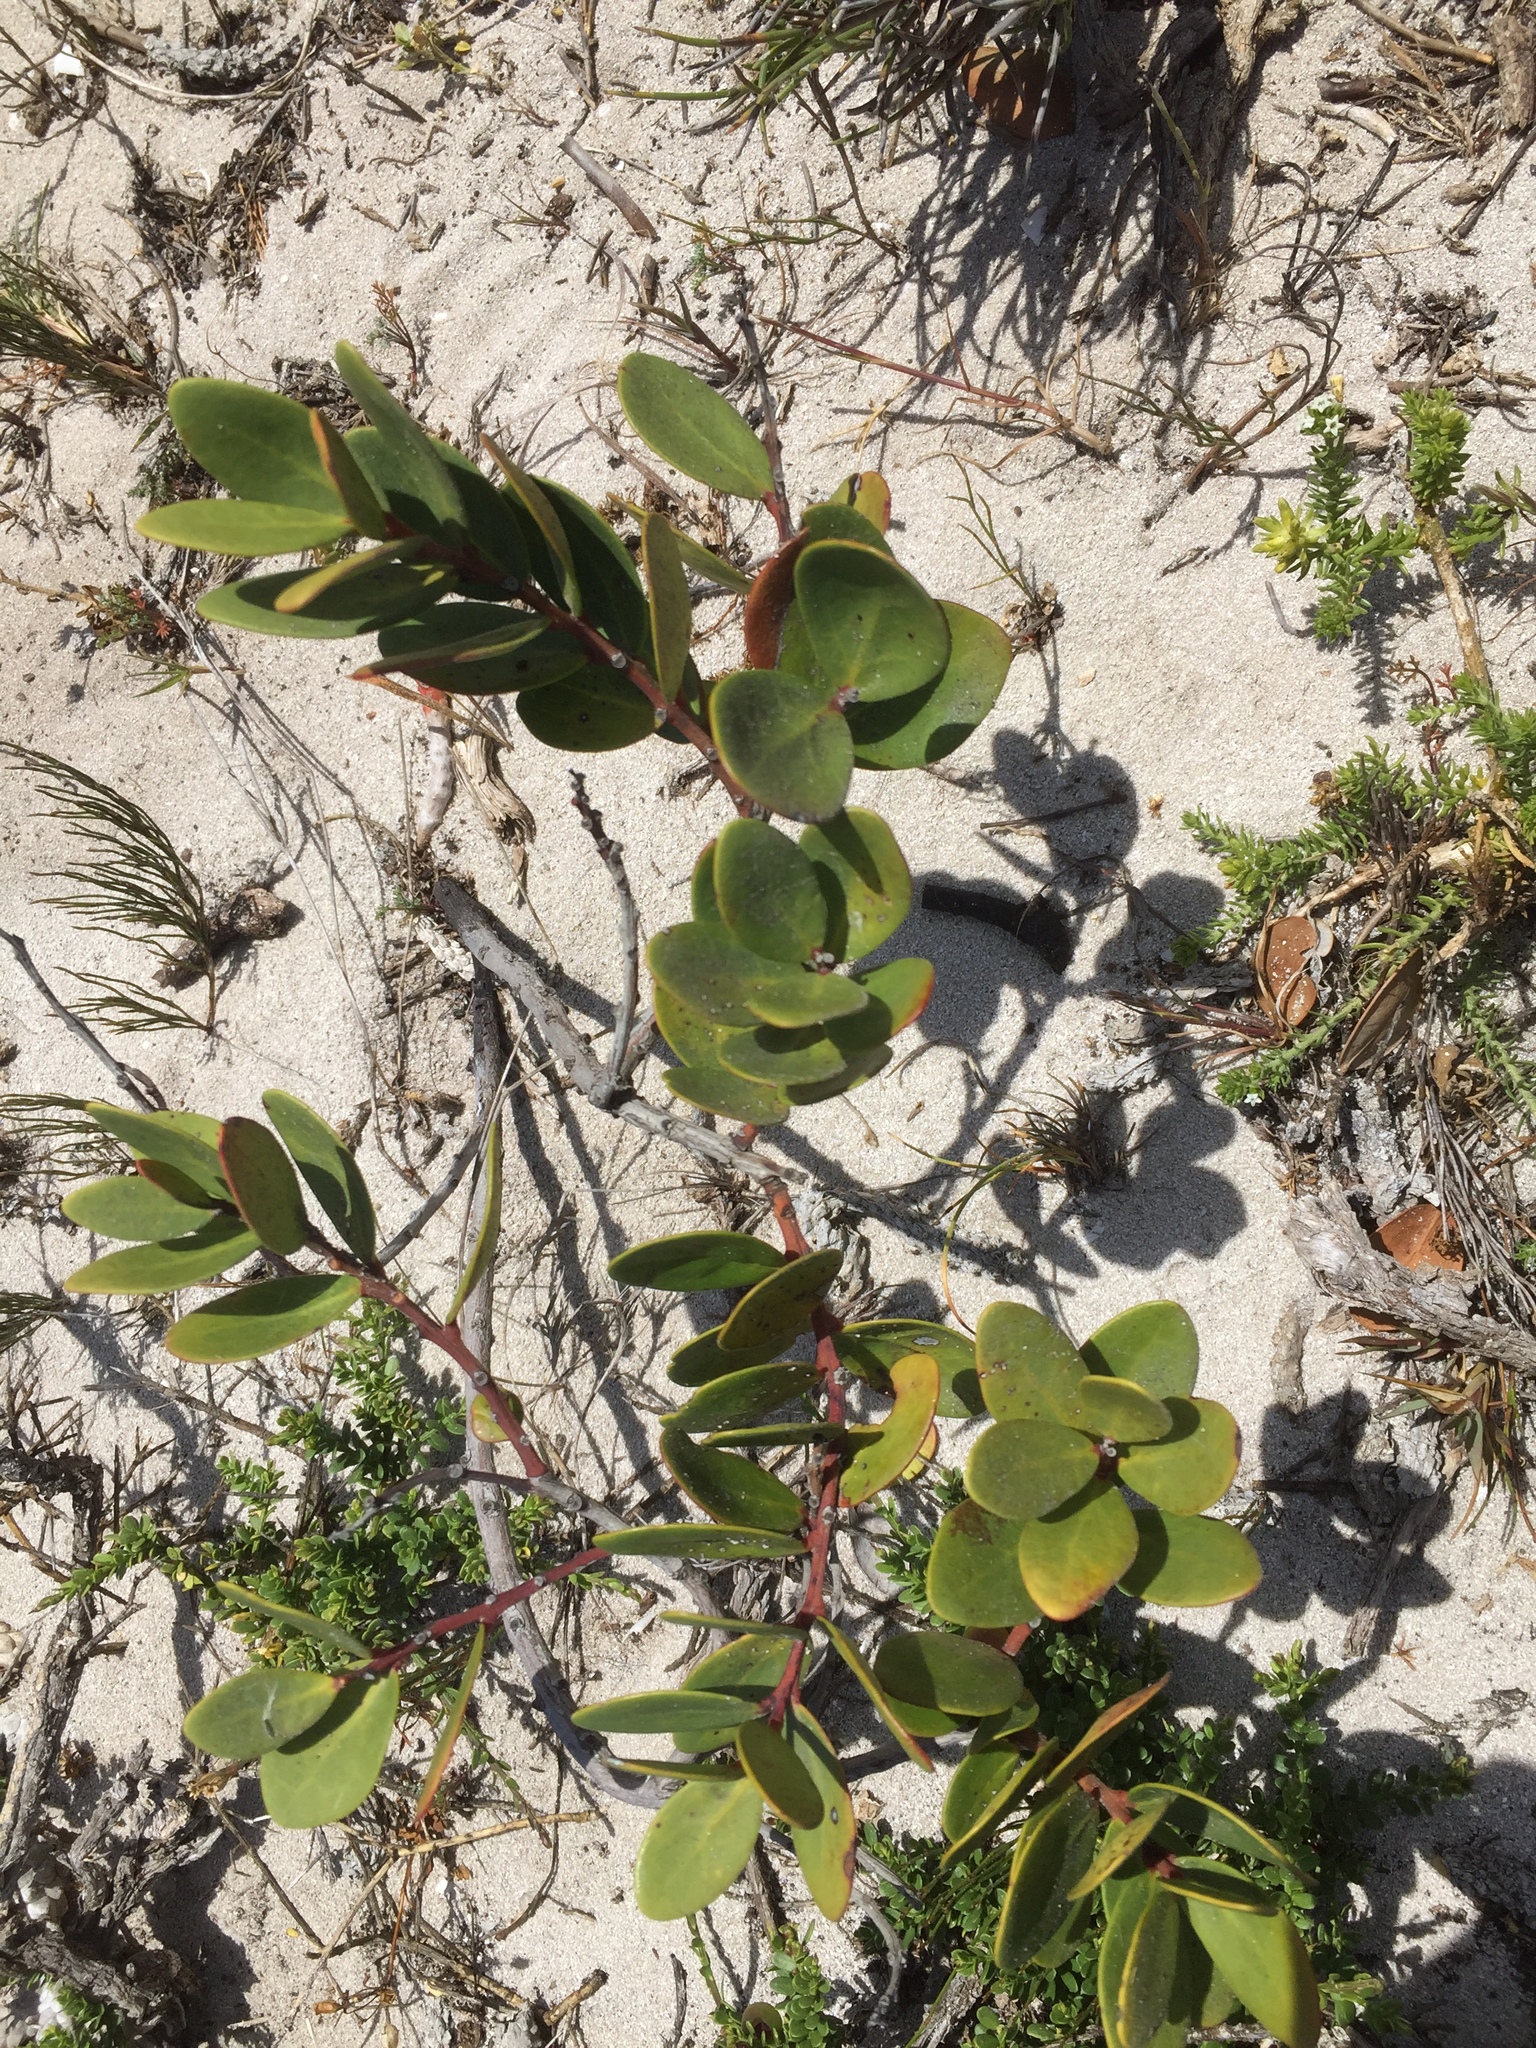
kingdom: Plantae
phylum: Tracheophyta
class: Magnoliopsida
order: Ericales
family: Ebenaceae
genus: Euclea
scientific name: Euclea racemosa
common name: Dune guarri
